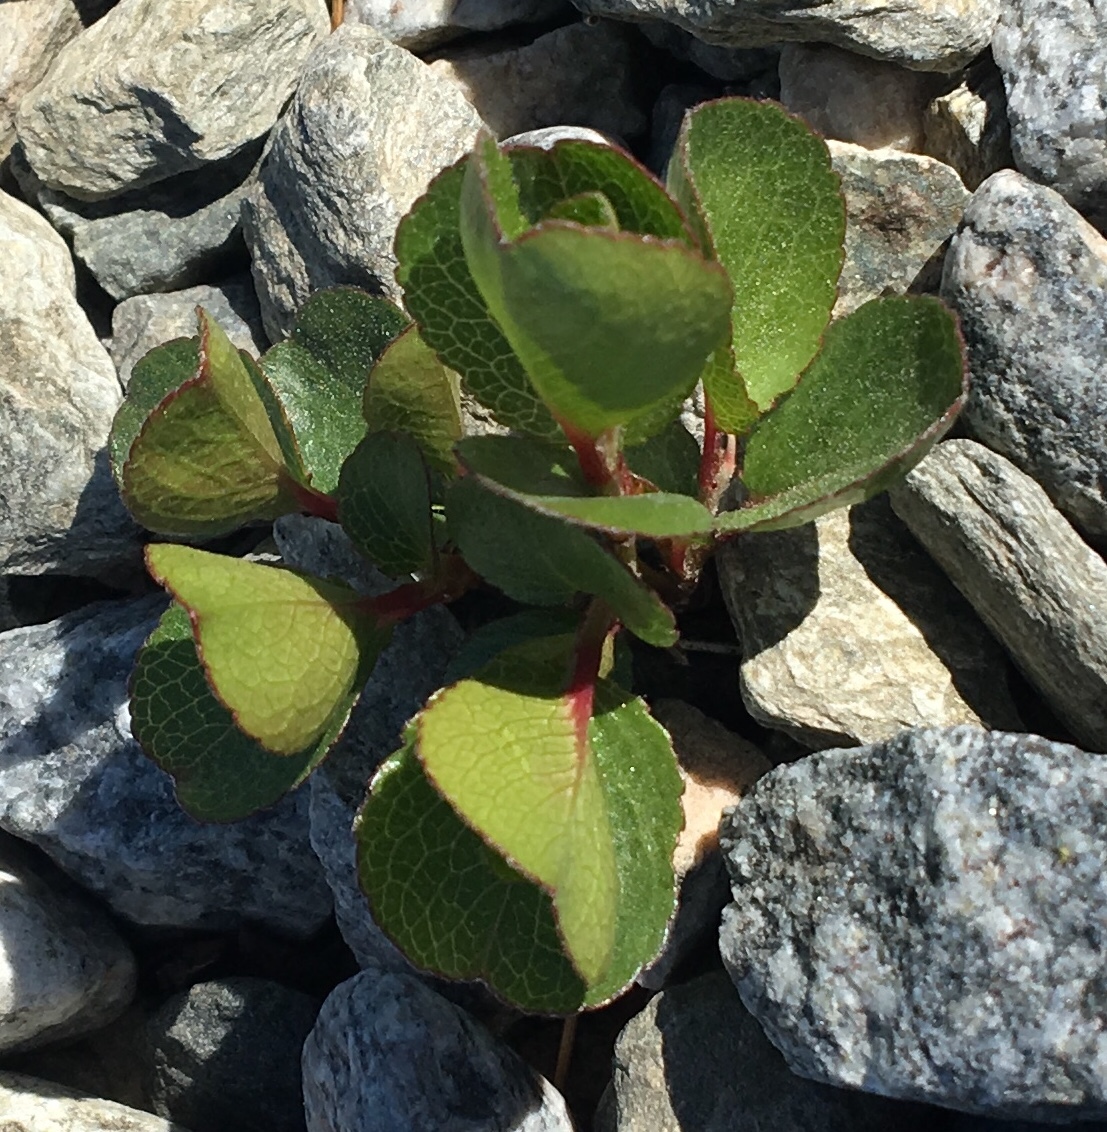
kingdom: Plantae
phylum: Tracheophyta
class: Magnoliopsida
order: Malpighiales
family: Salicaceae
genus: Salix
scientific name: Salix herbacea
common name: Dwarf willow
